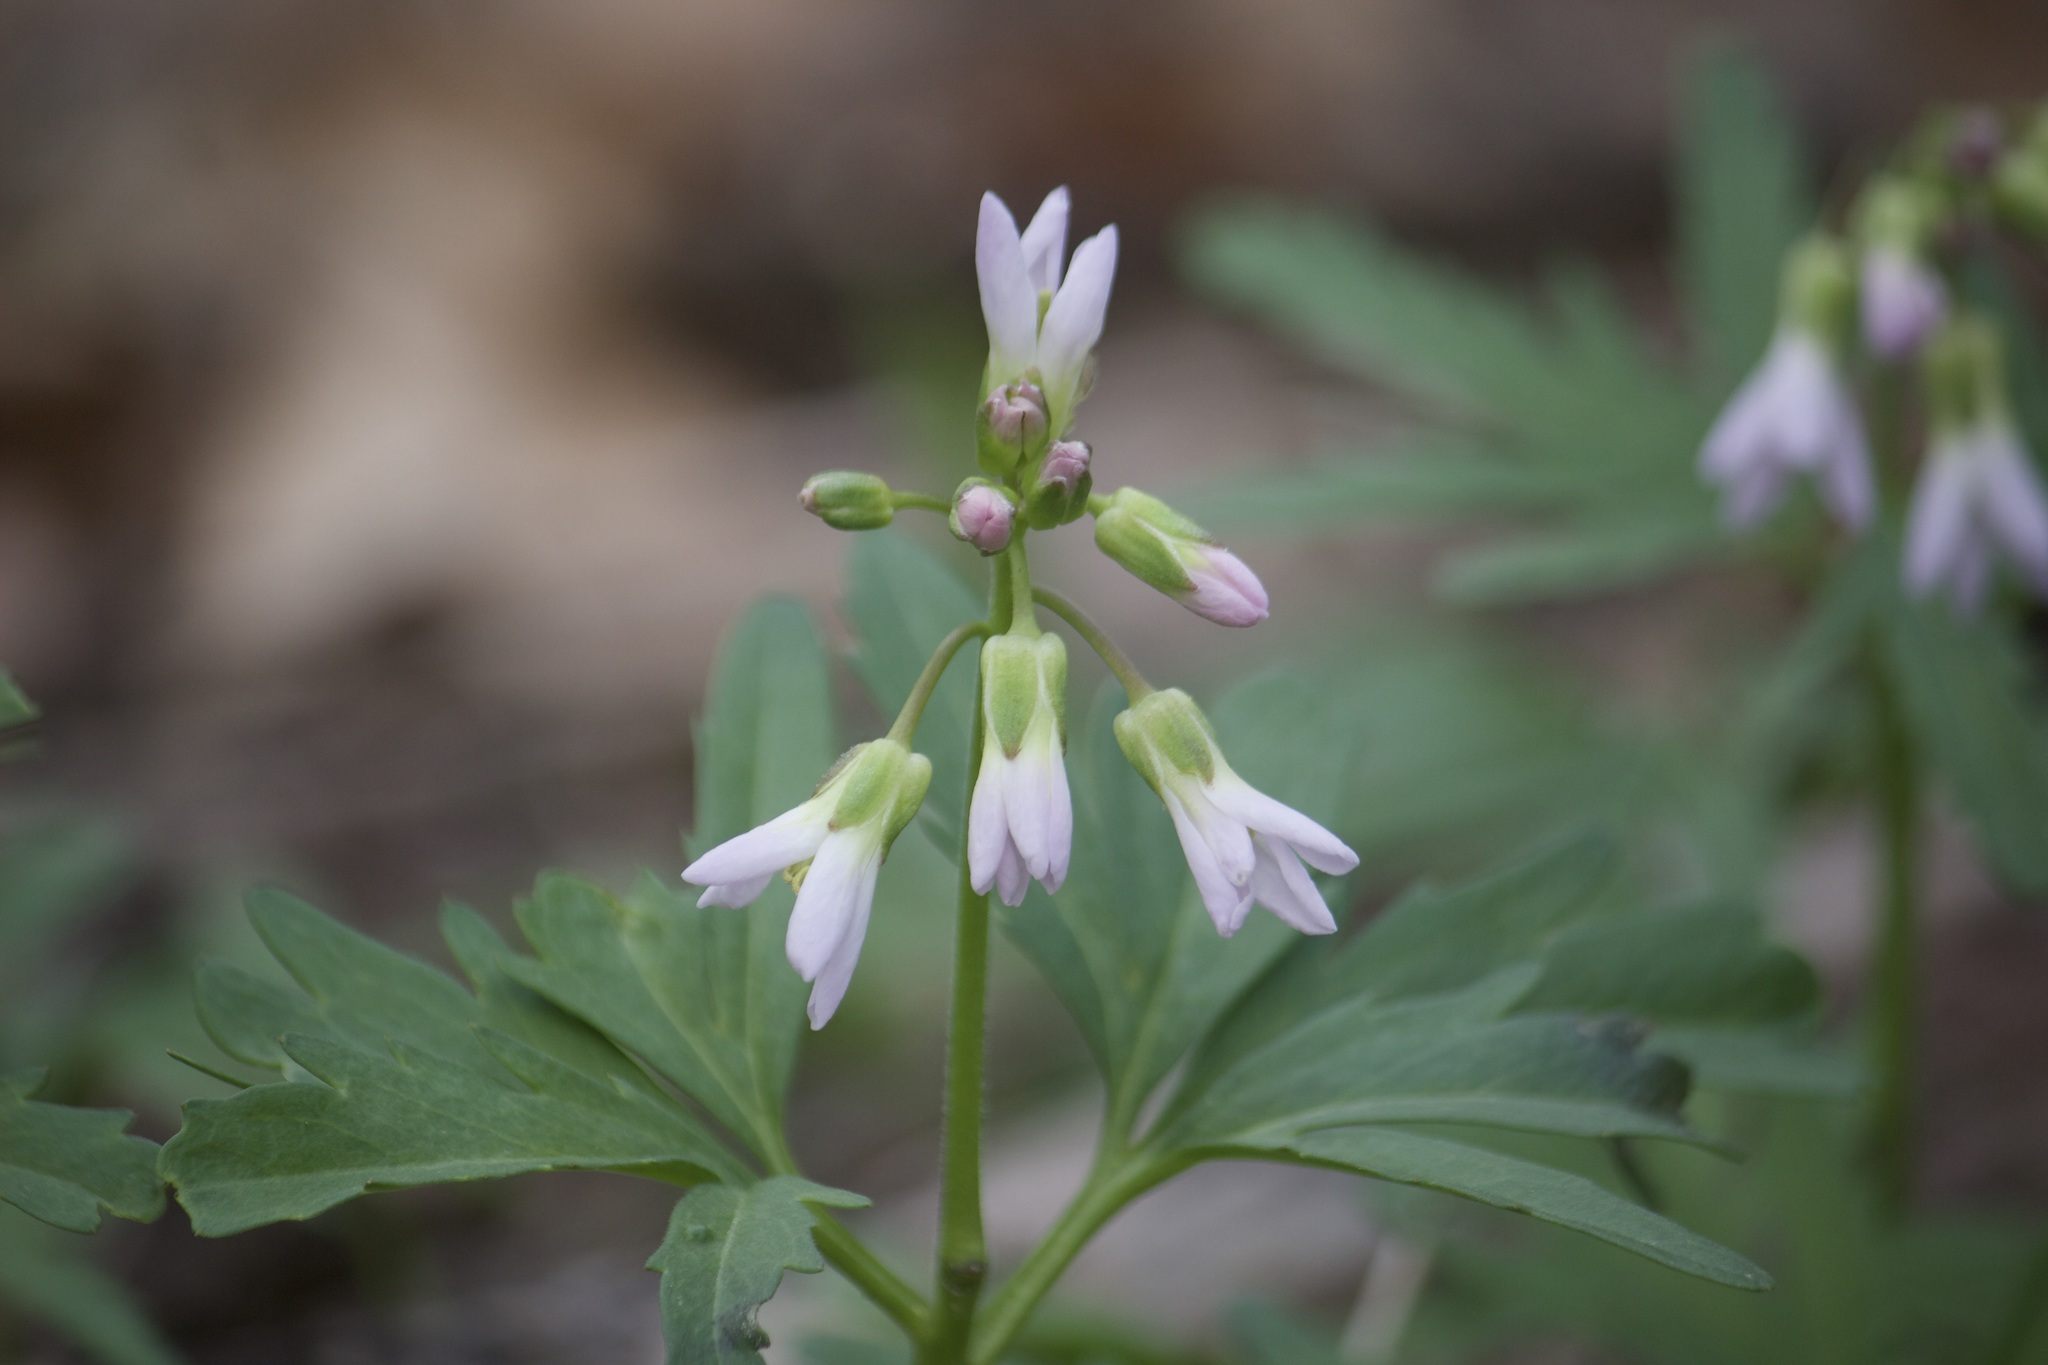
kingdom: Plantae
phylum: Tracheophyta
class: Magnoliopsida
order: Brassicales
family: Brassicaceae
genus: Cardamine
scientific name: Cardamine concatenata
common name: Cut-leaf toothcup
